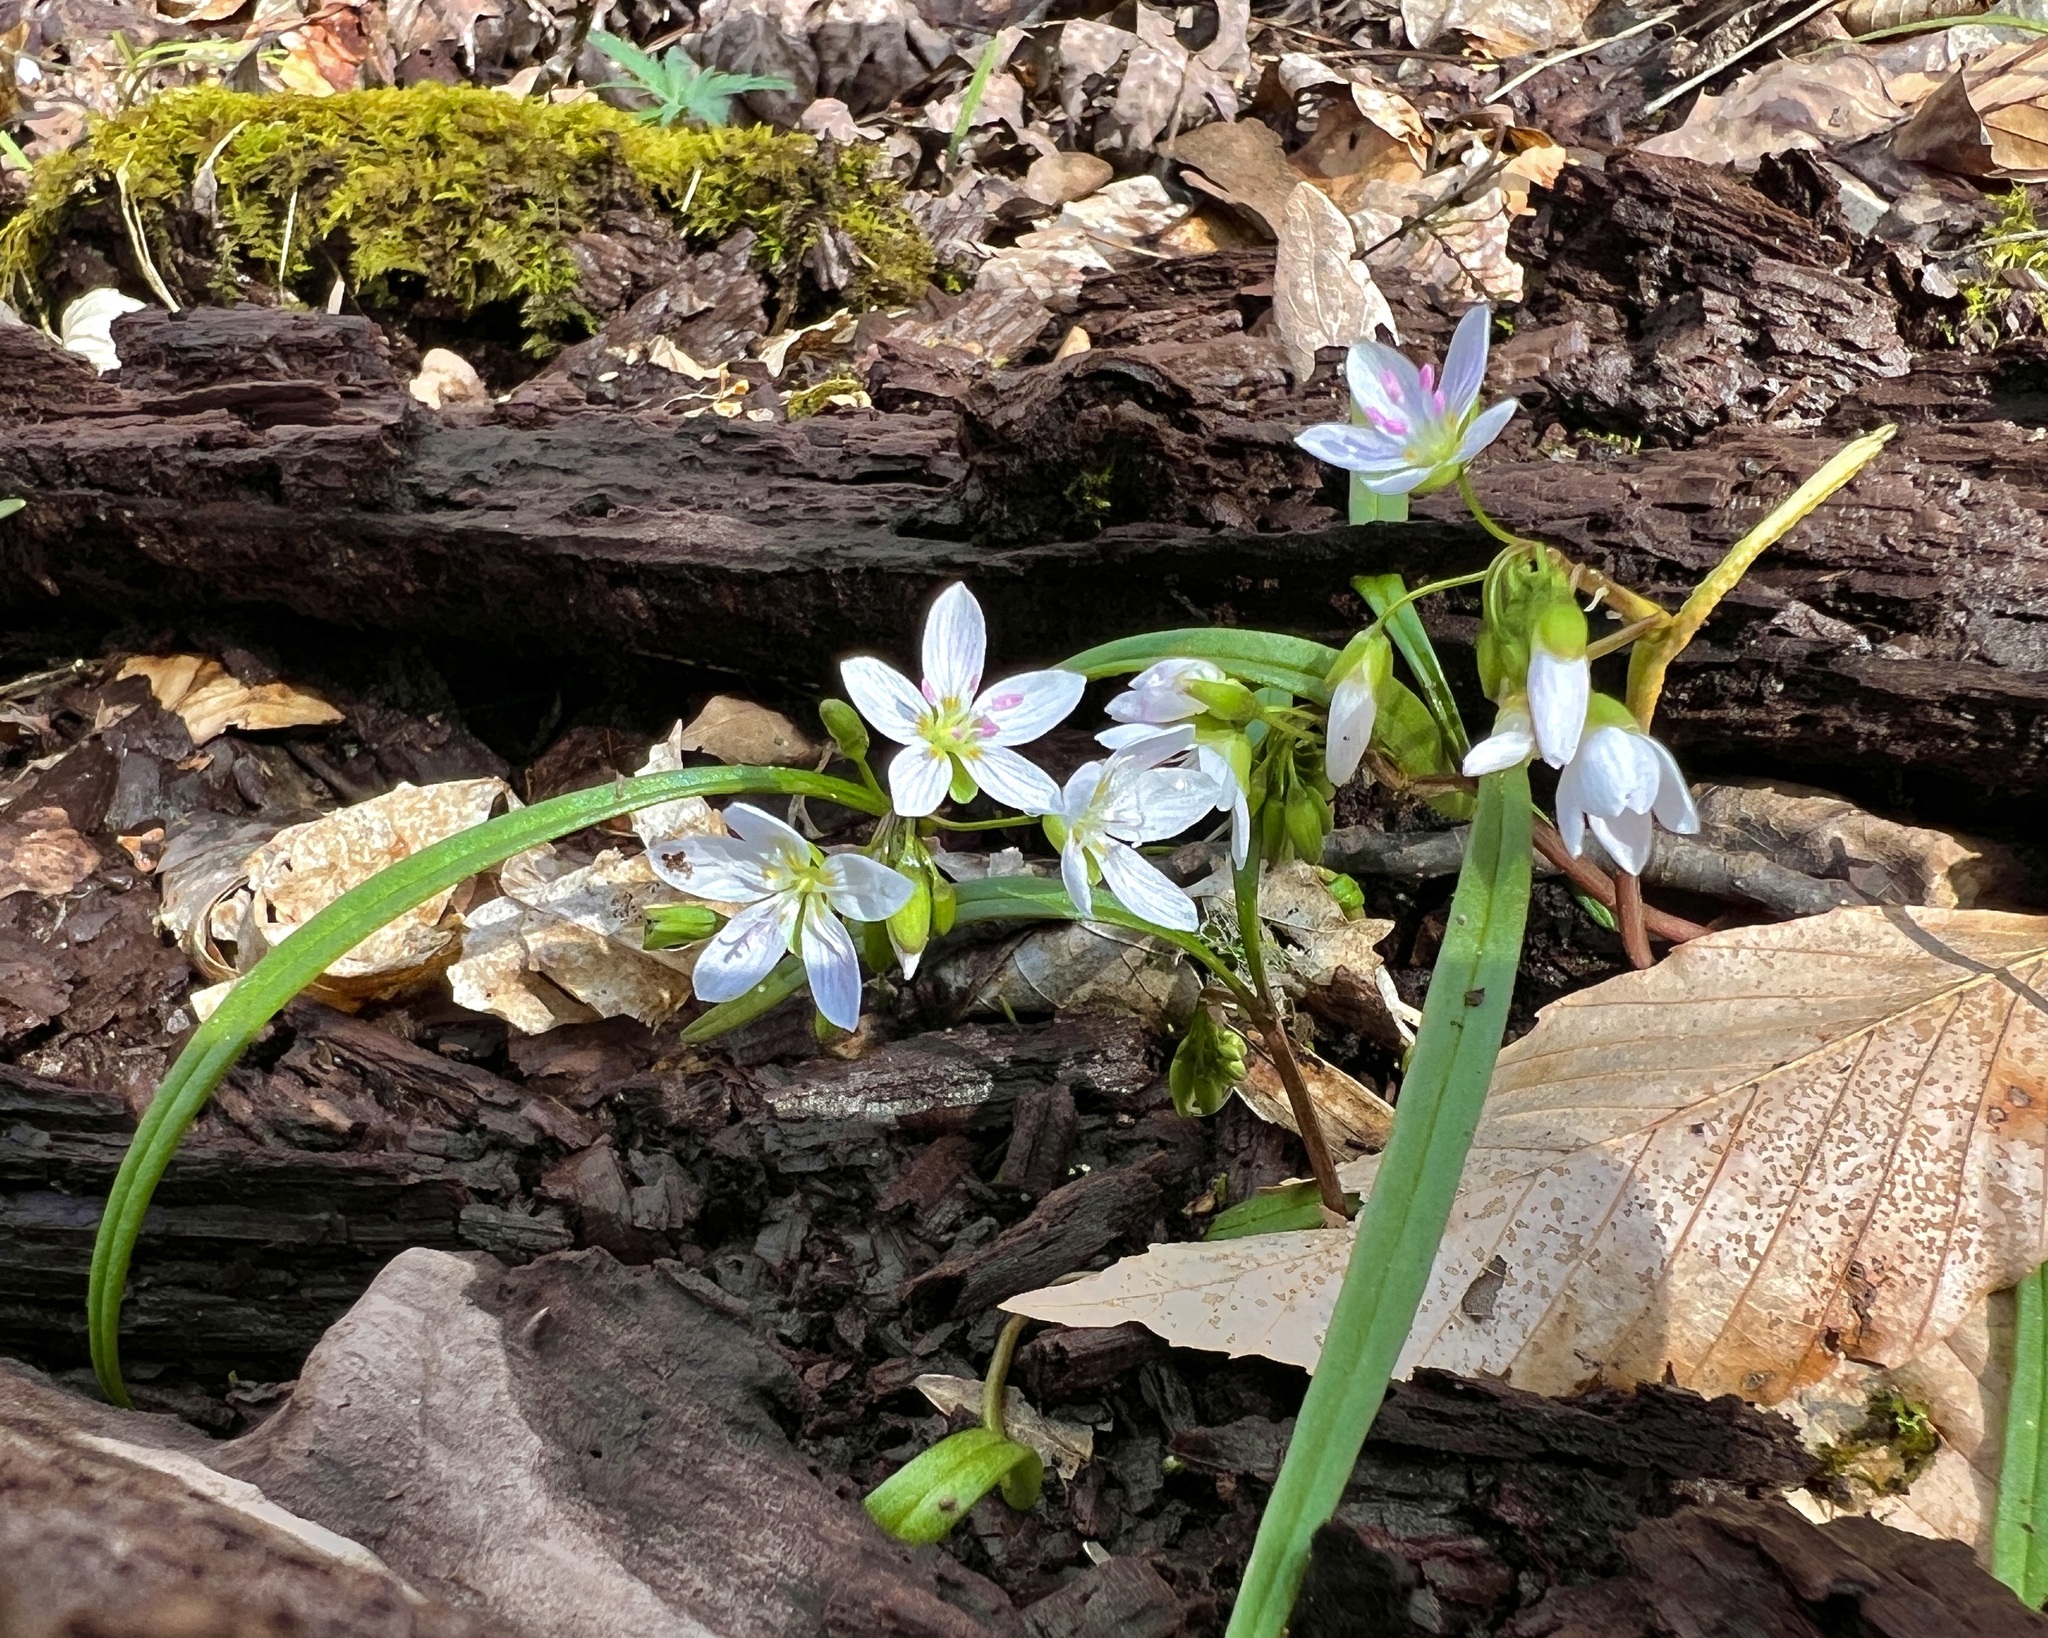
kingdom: Plantae
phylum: Tracheophyta
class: Magnoliopsida
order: Caryophyllales
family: Montiaceae
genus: Claytonia
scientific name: Claytonia virginica
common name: Virginia springbeauty
